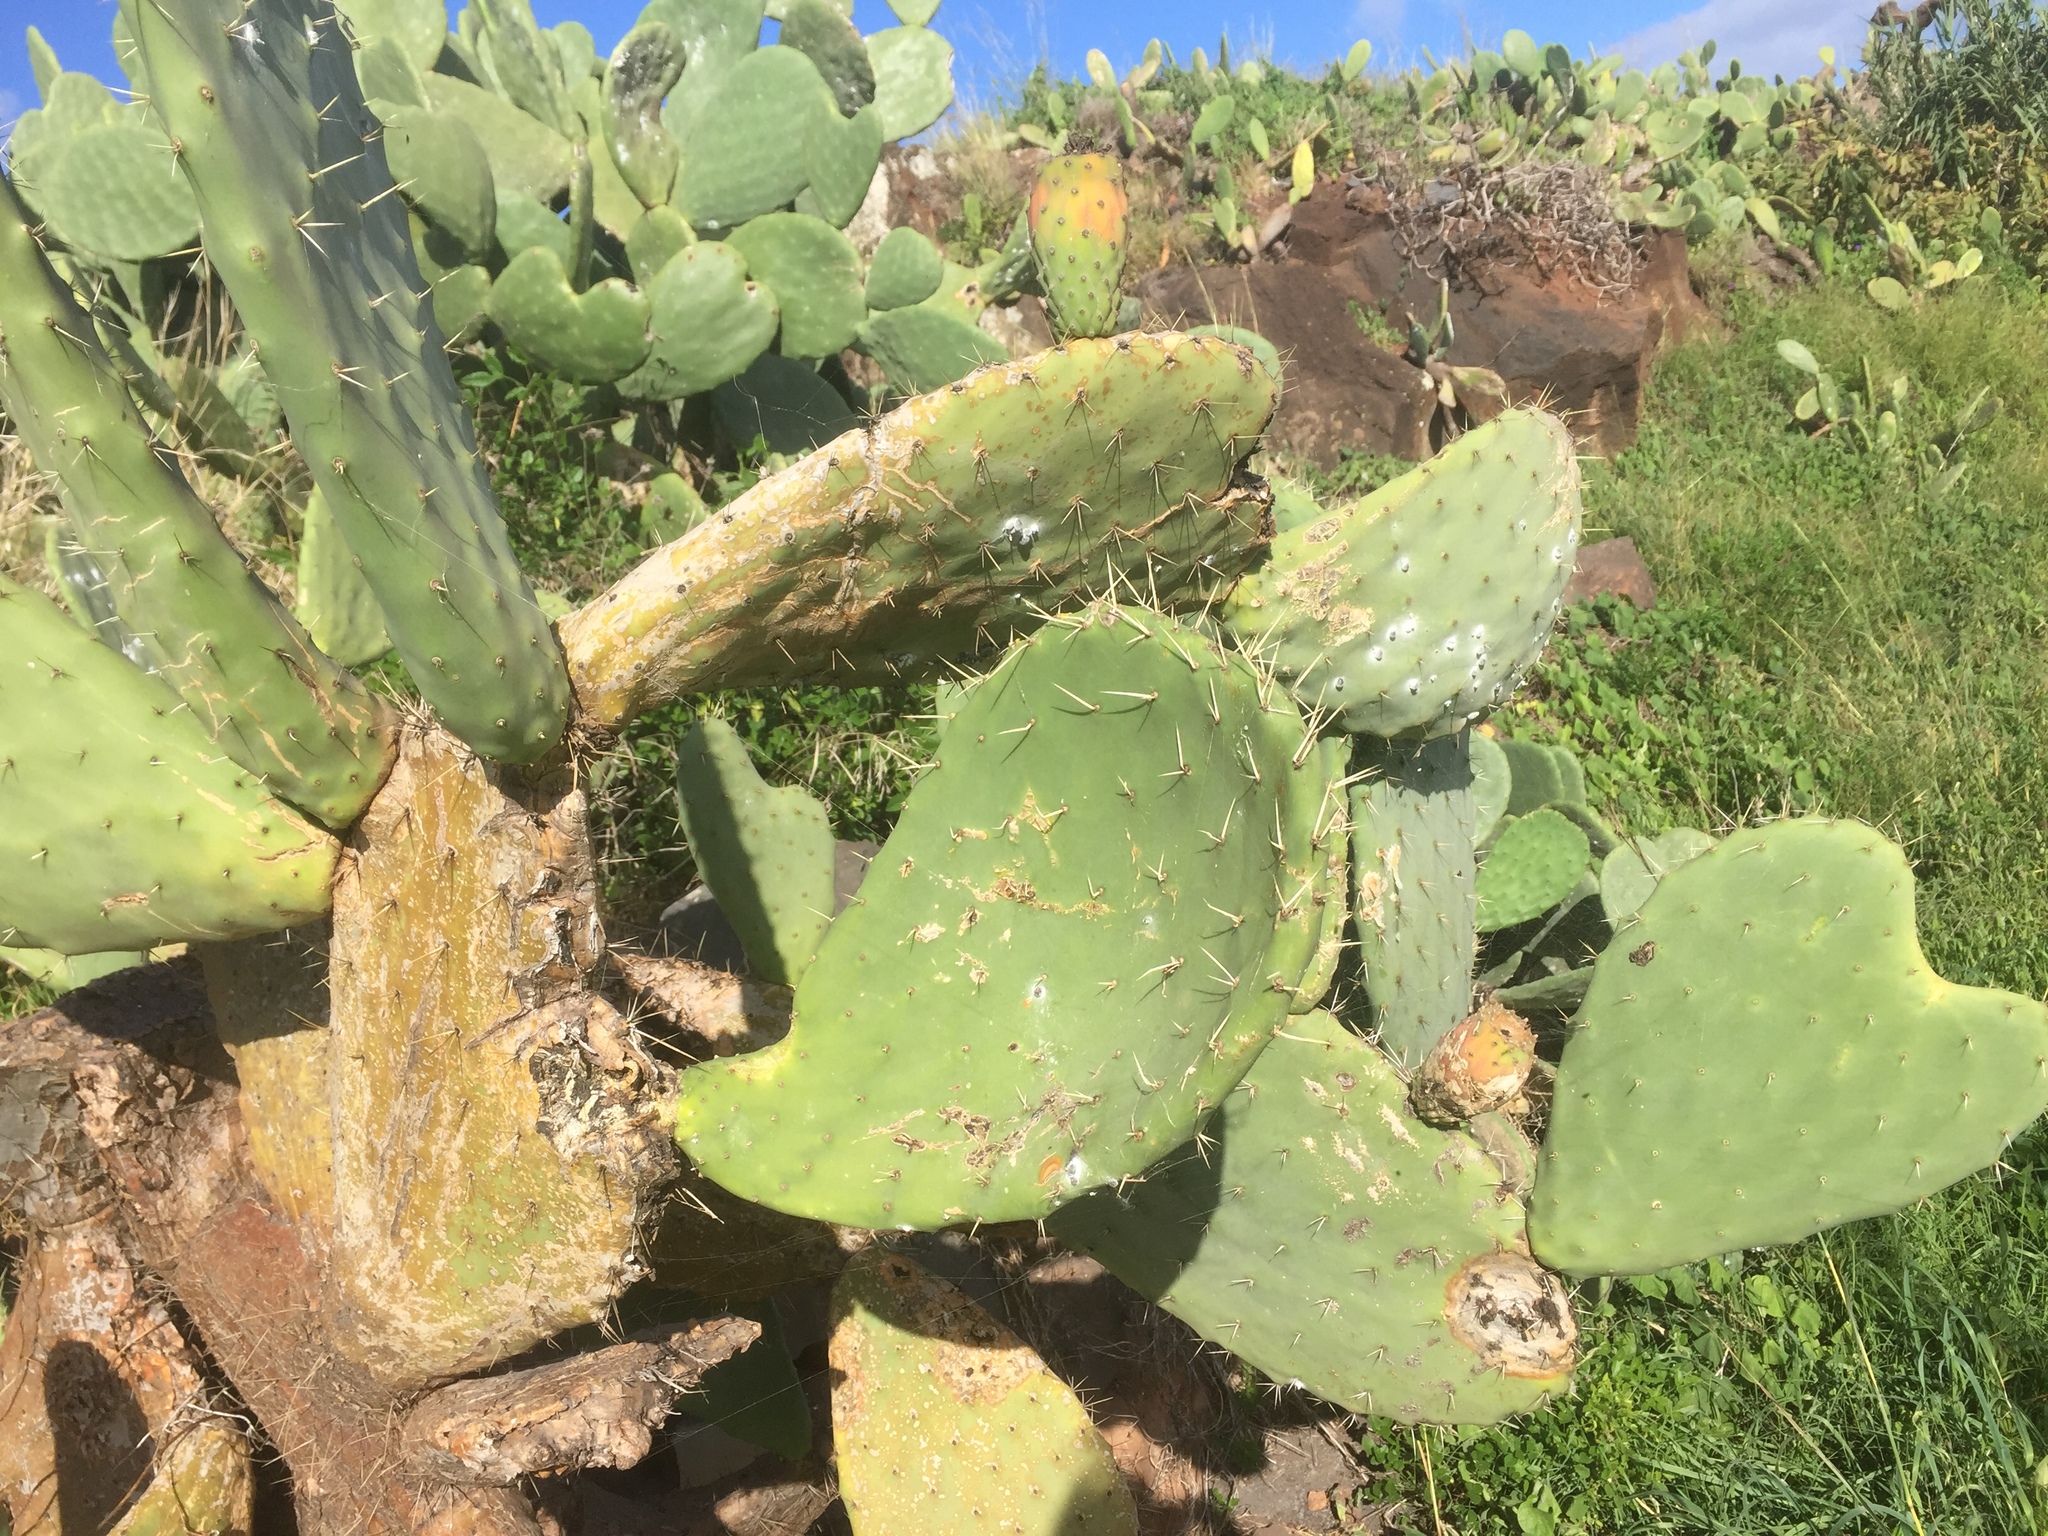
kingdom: Plantae
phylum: Tracheophyta
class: Magnoliopsida
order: Caryophyllales
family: Cactaceae
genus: Opuntia
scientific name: Opuntia ficus-indica
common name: Barbary fig
